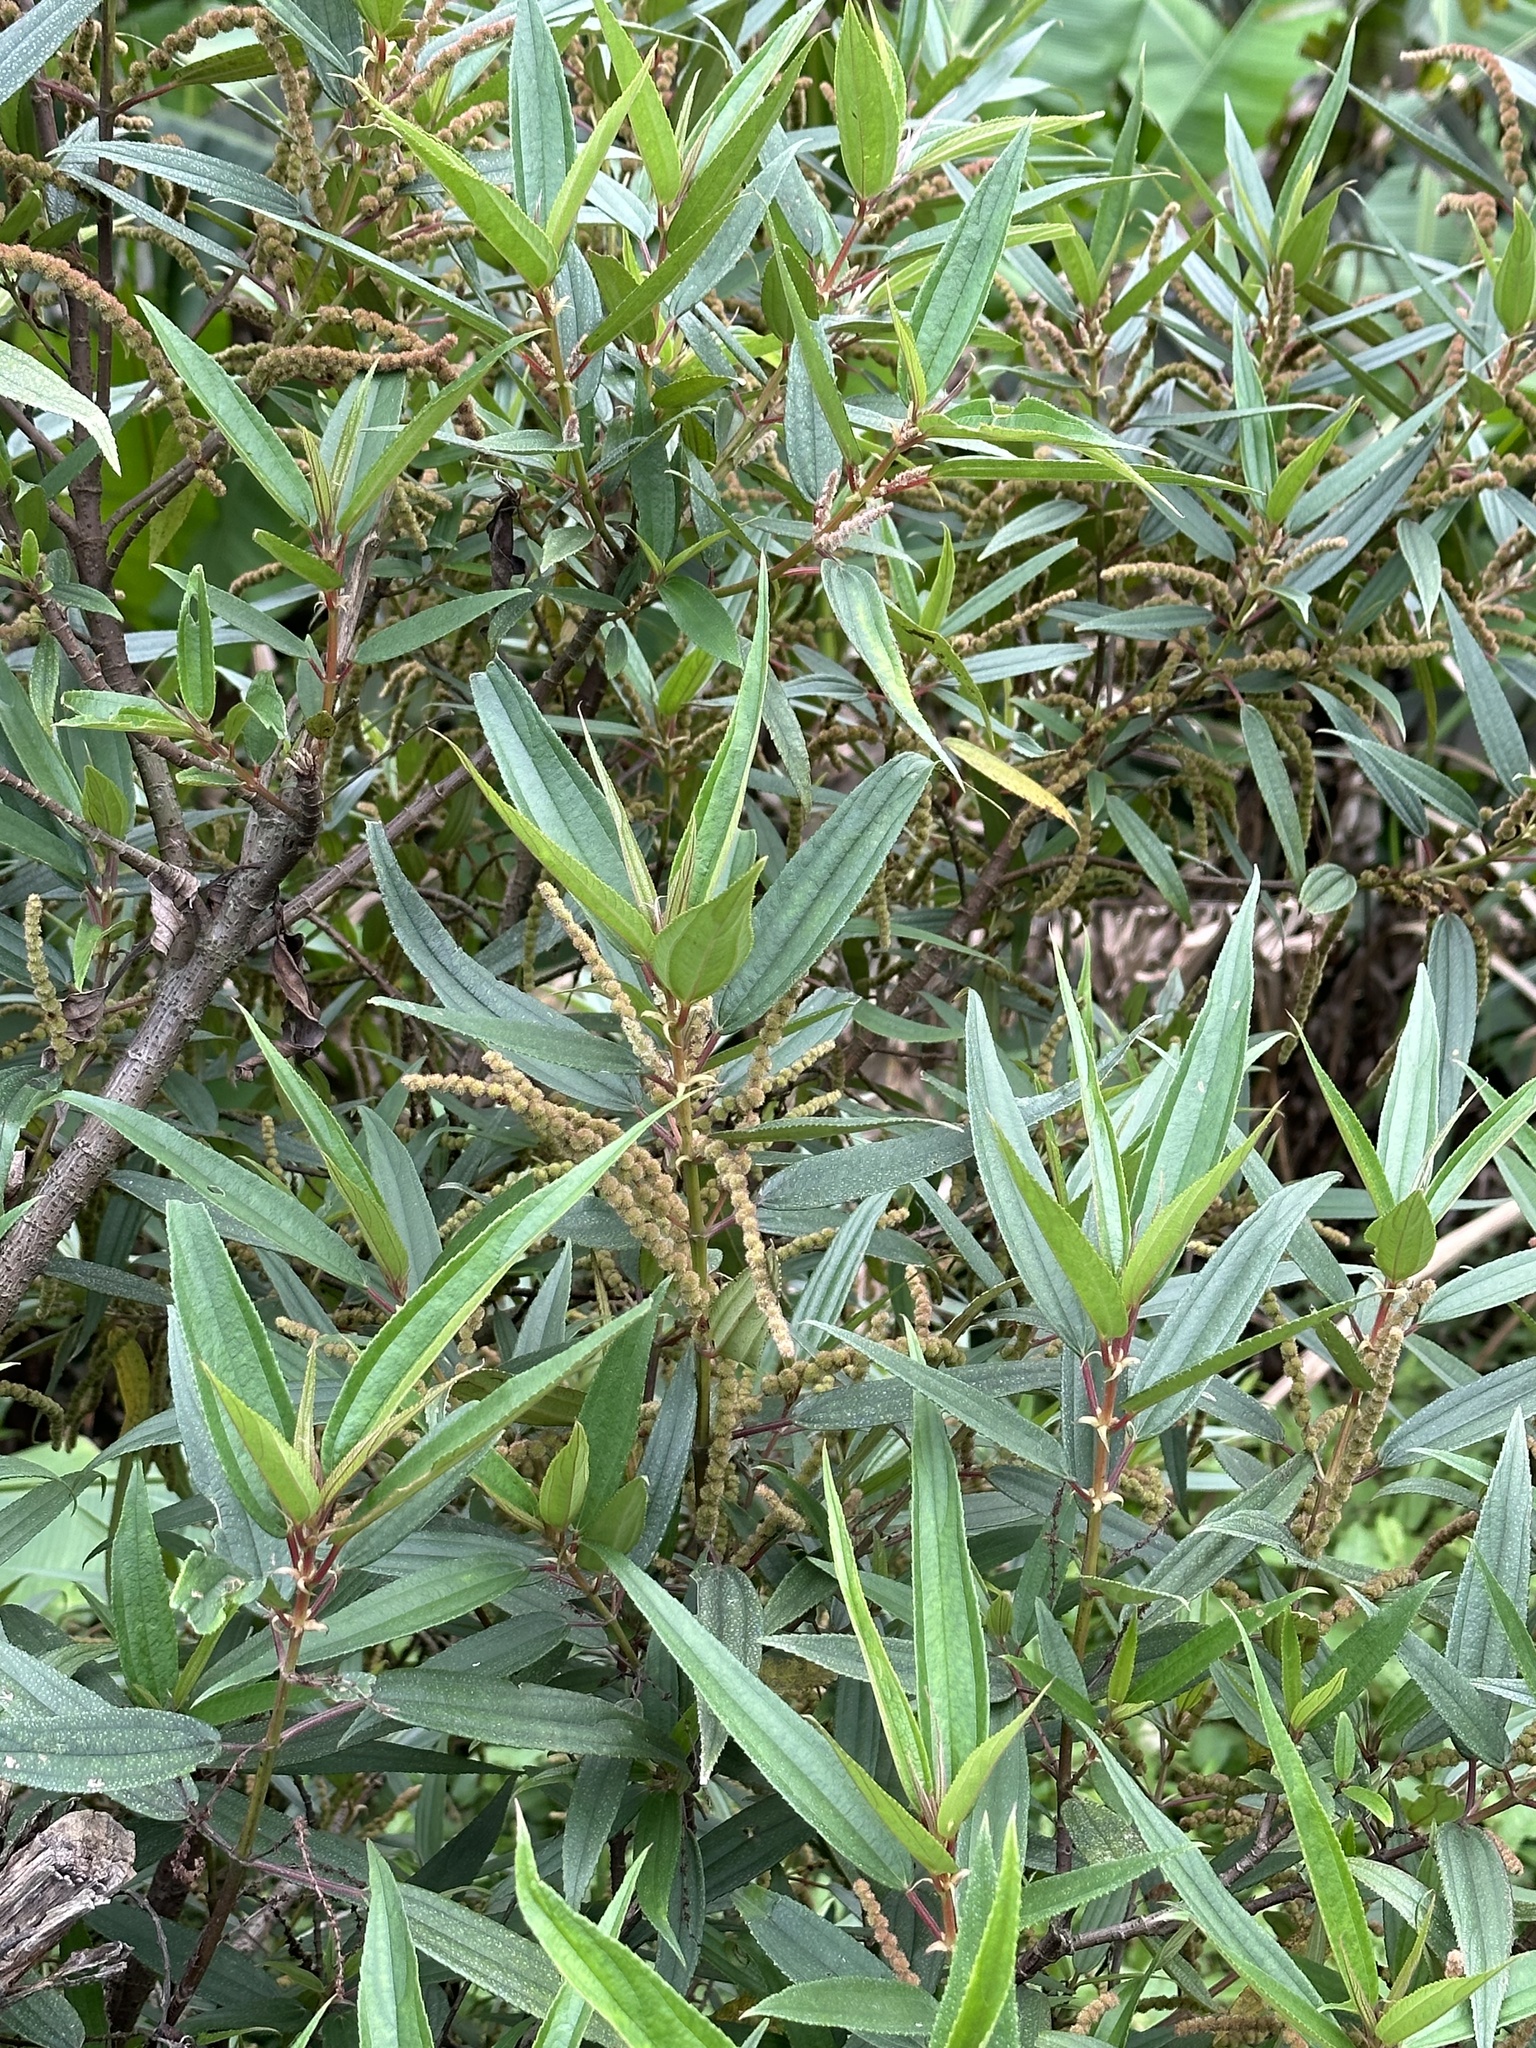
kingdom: Plantae
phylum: Tracheophyta
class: Magnoliopsida
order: Rosales
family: Urticaceae
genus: Boehmeria
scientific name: Boehmeria densiflora
